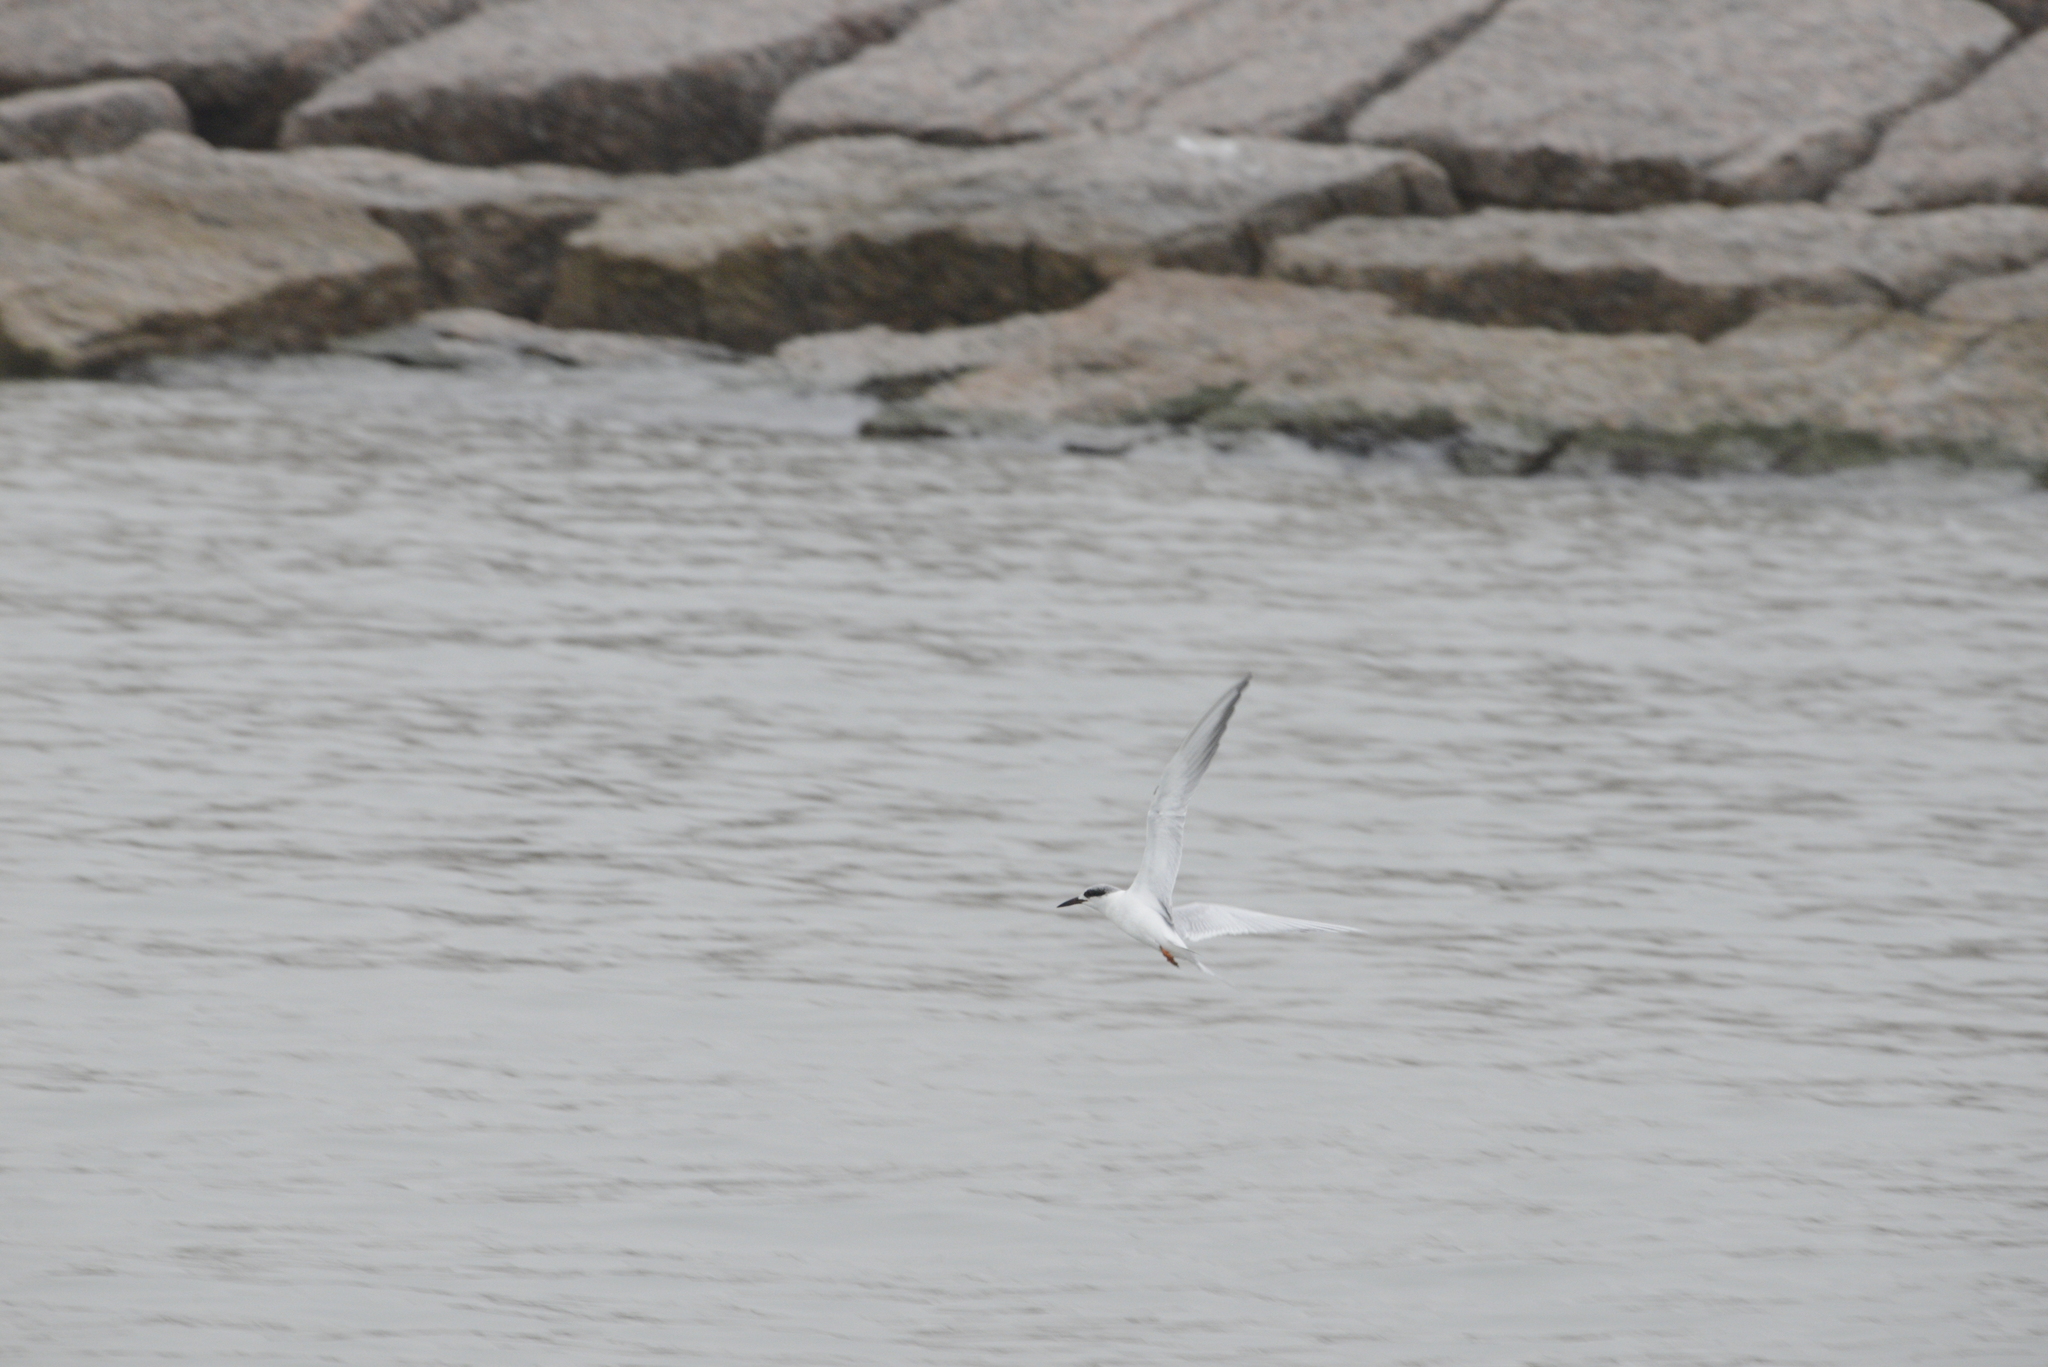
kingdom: Animalia
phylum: Chordata
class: Aves
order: Charadriiformes
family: Laridae
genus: Sterna
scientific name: Sterna forsteri
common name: Forster's tern
